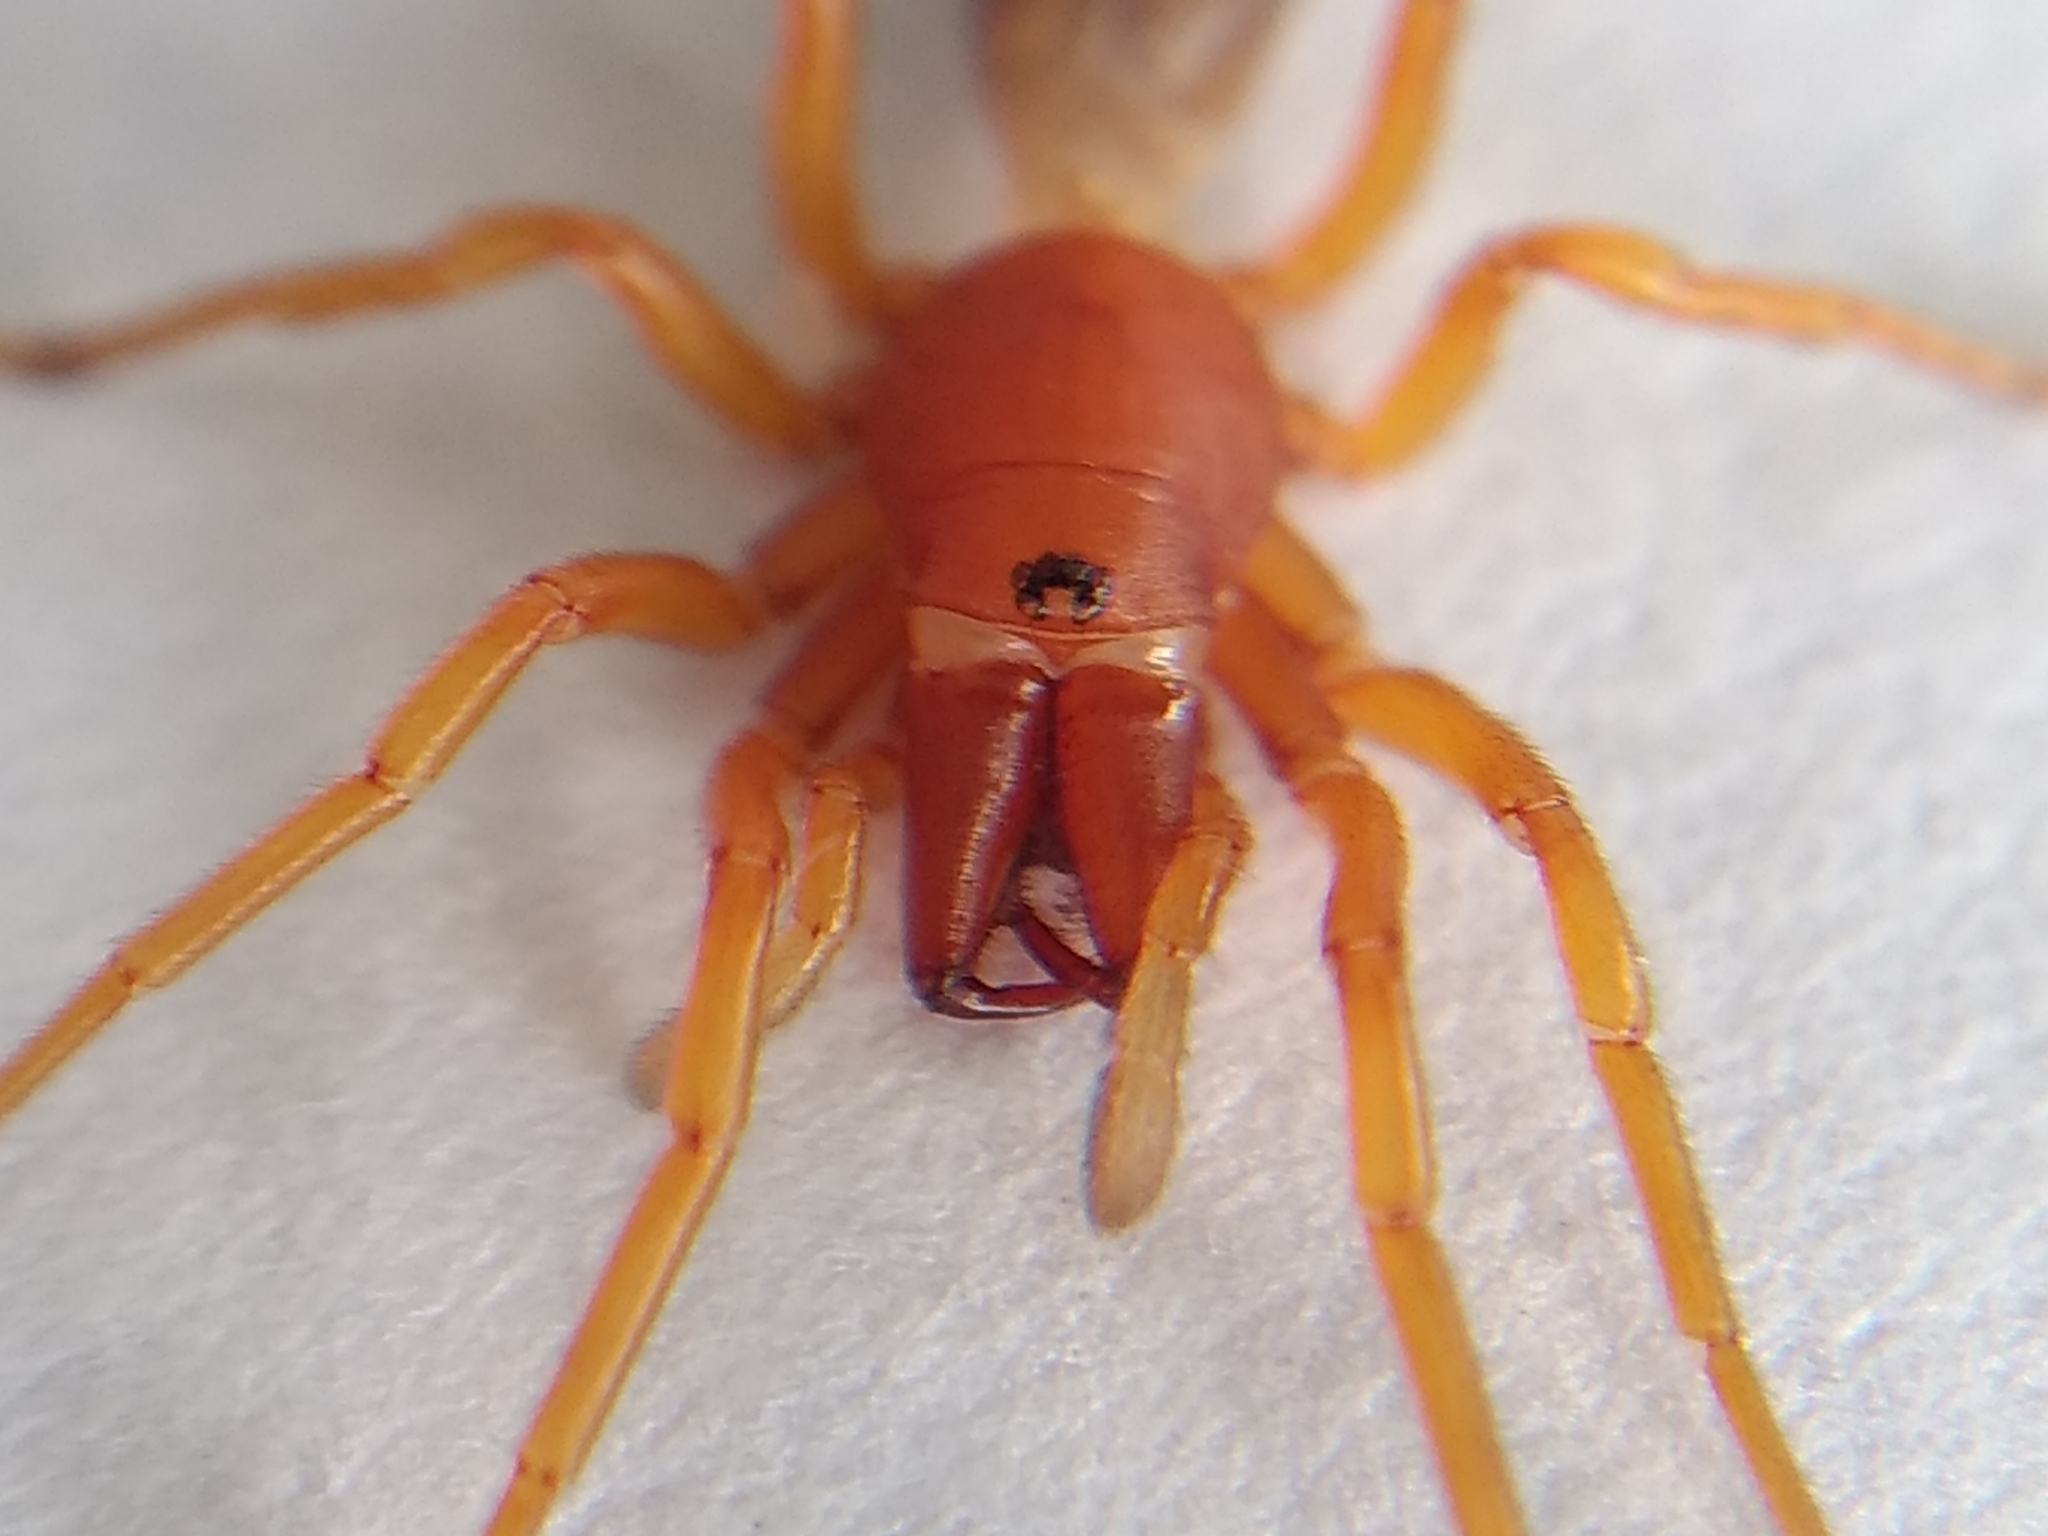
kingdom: Animalia
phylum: Arthropoda
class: Arachnida
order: Araneae
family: Dysderidae
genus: Dysdera
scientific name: Dysdera crocata
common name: Woodlouse spider
